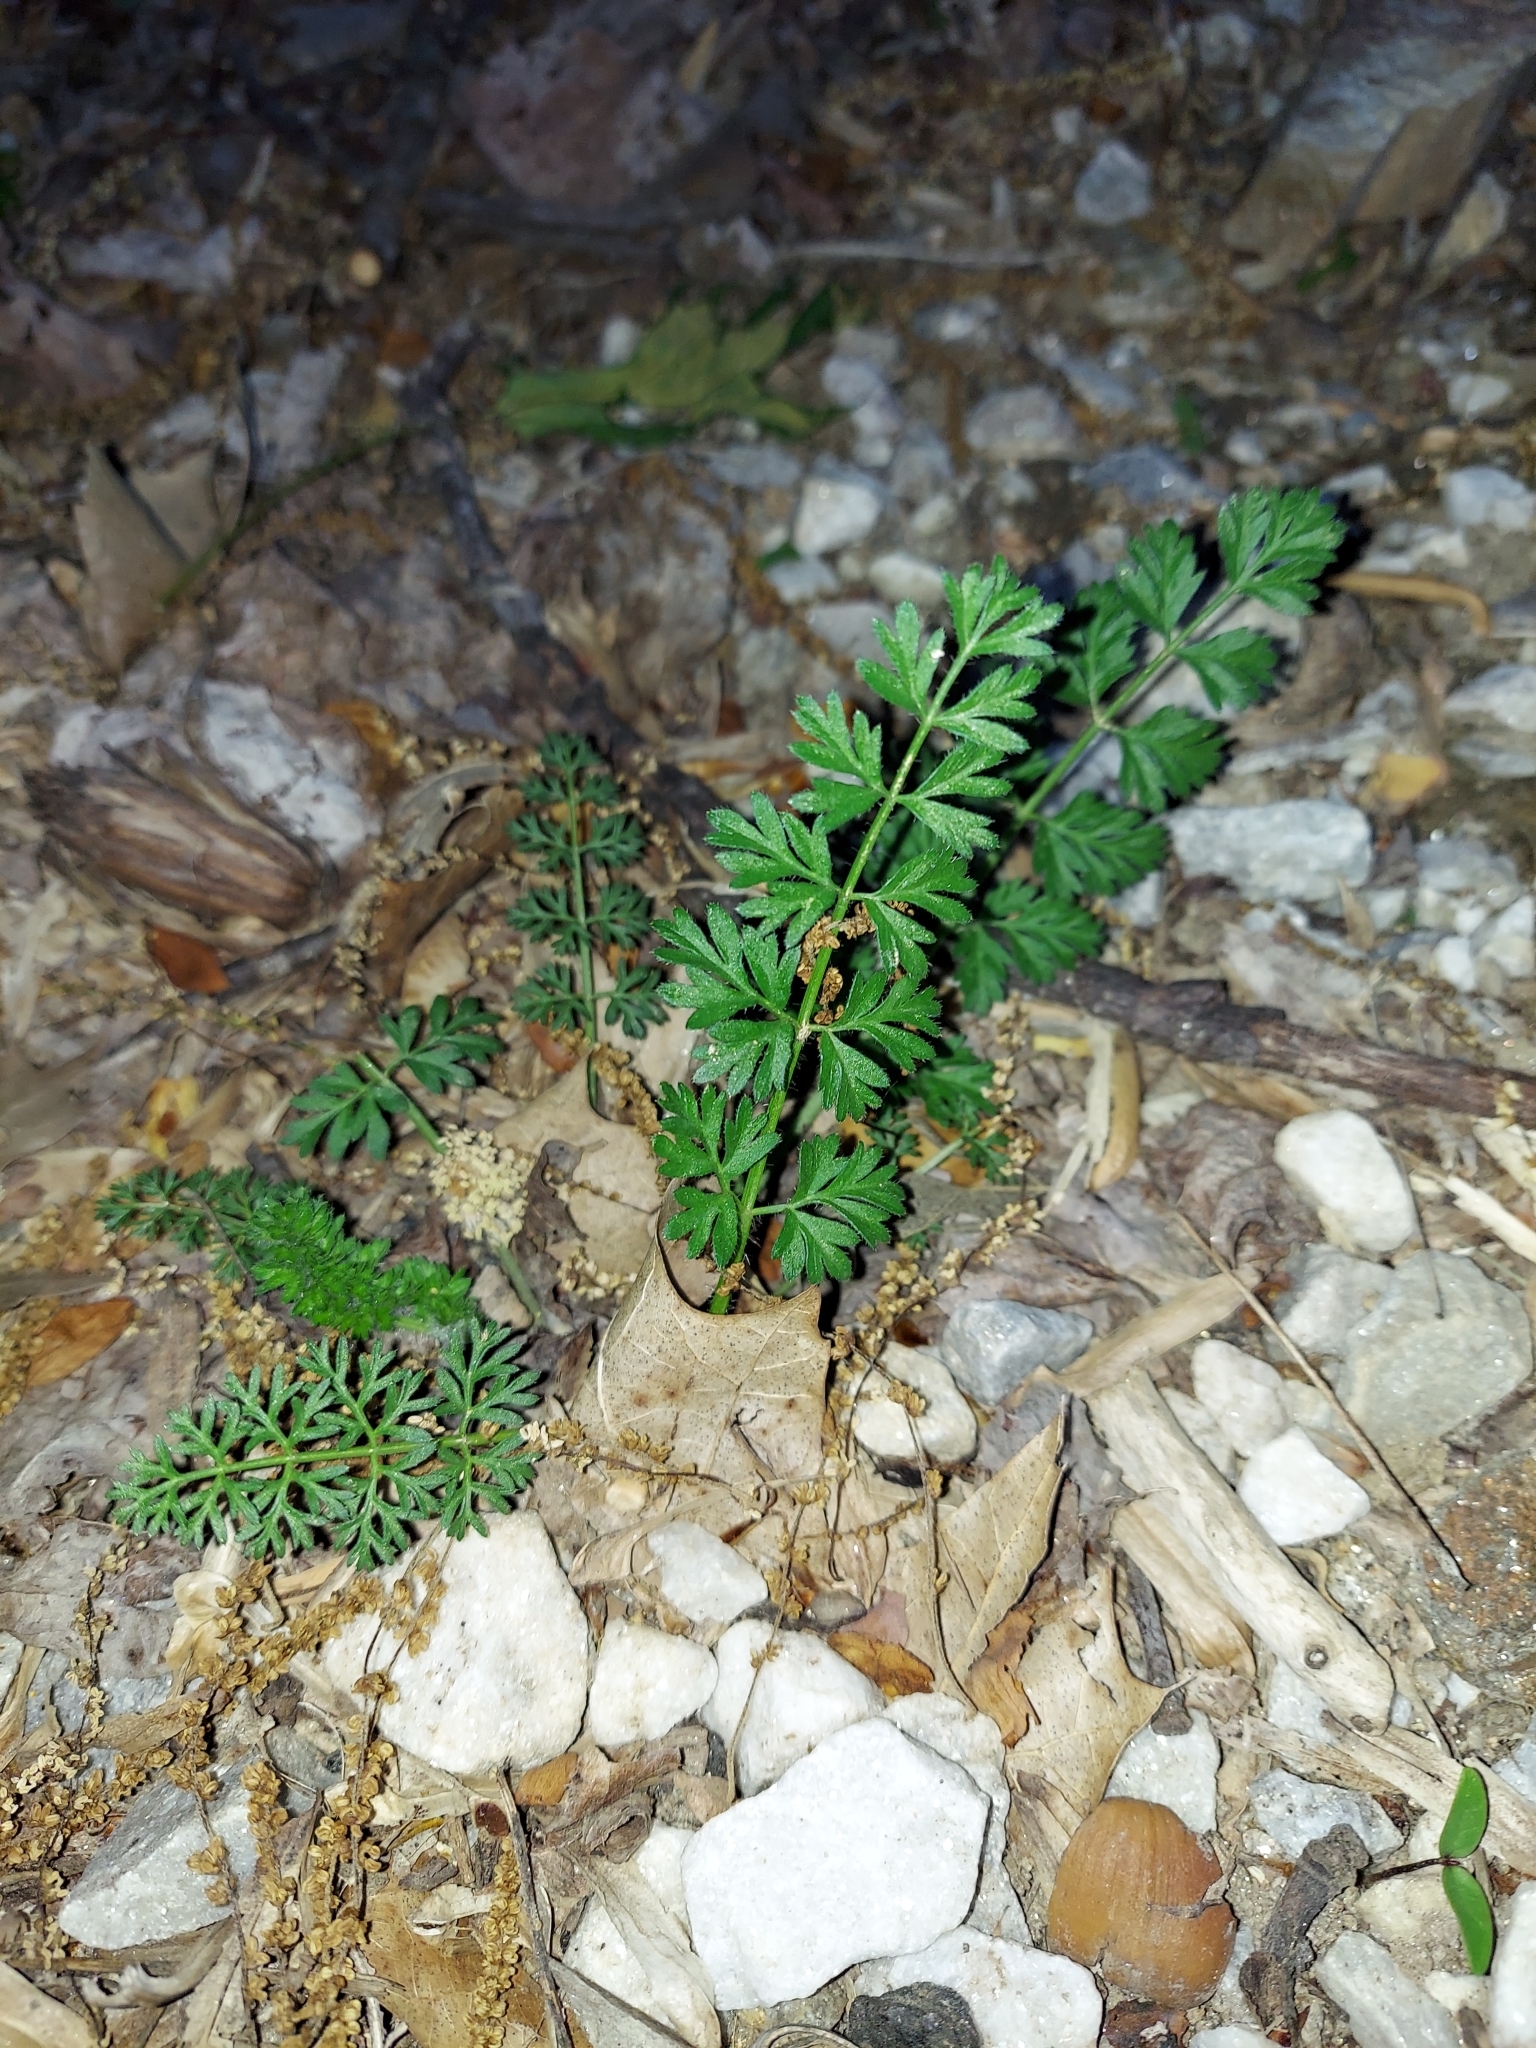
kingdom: Plantae
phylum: Tracheophyta
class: Magnoliopsida
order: Apiales
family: Apiaceae
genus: Daucus
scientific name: Daucus carota
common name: Wild carrot
